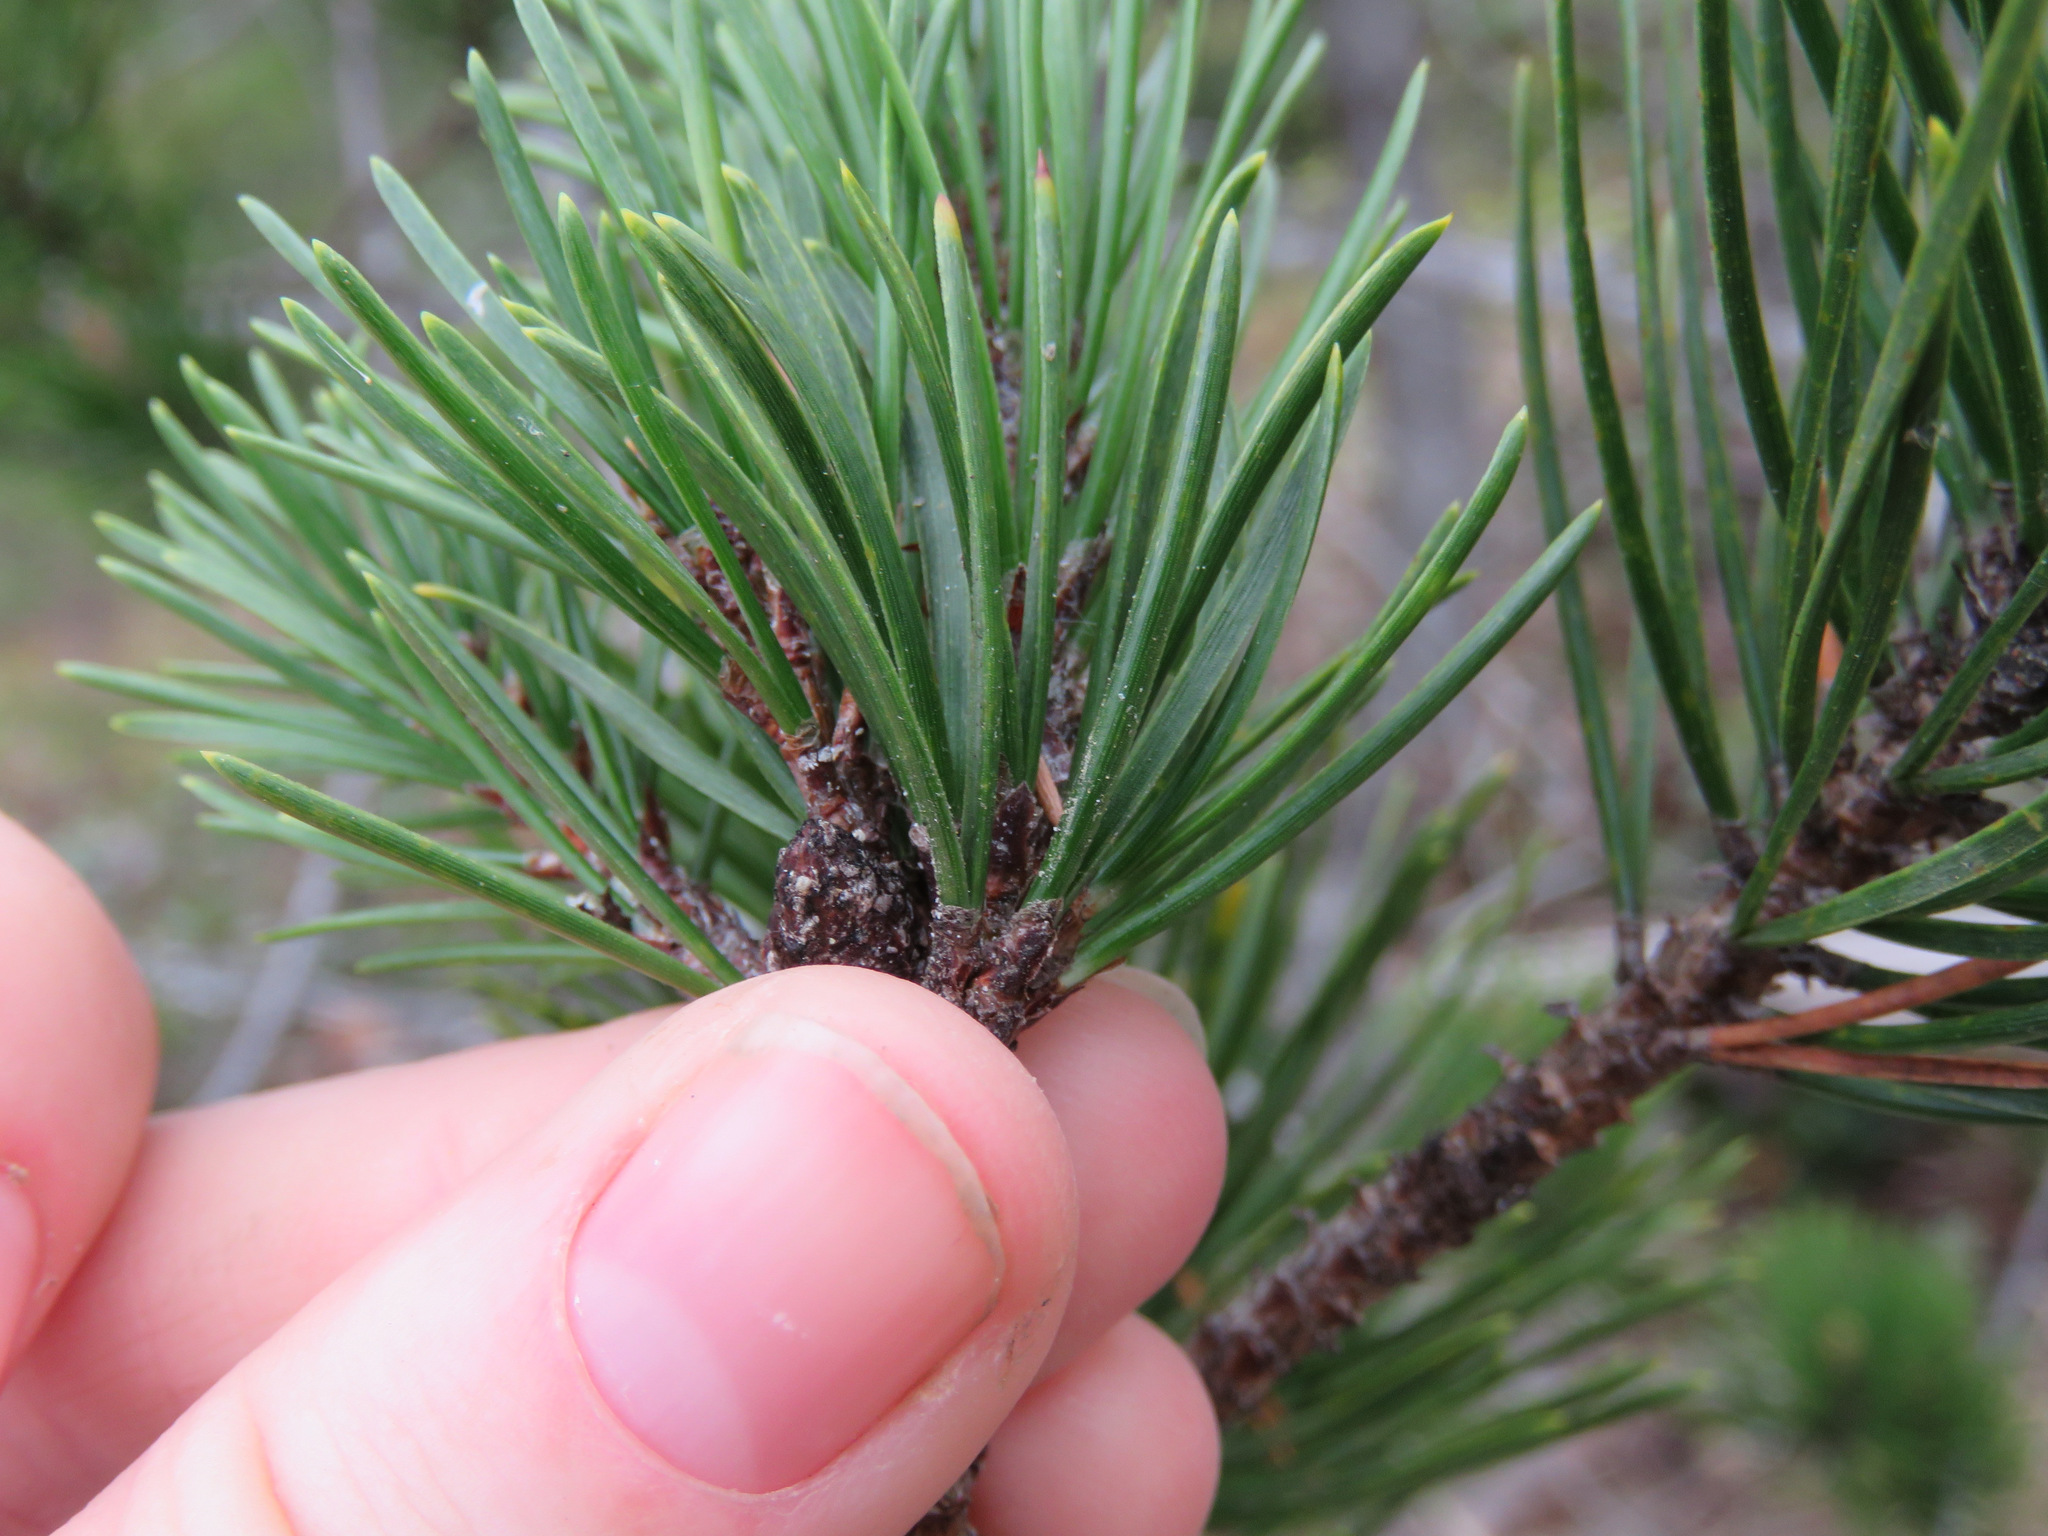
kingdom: Plantae
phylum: Tracheophyta
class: Pinopsida
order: Pinales
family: Pinaceae
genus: Pinus
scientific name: Pinus contorta
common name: Lodgepole pine
